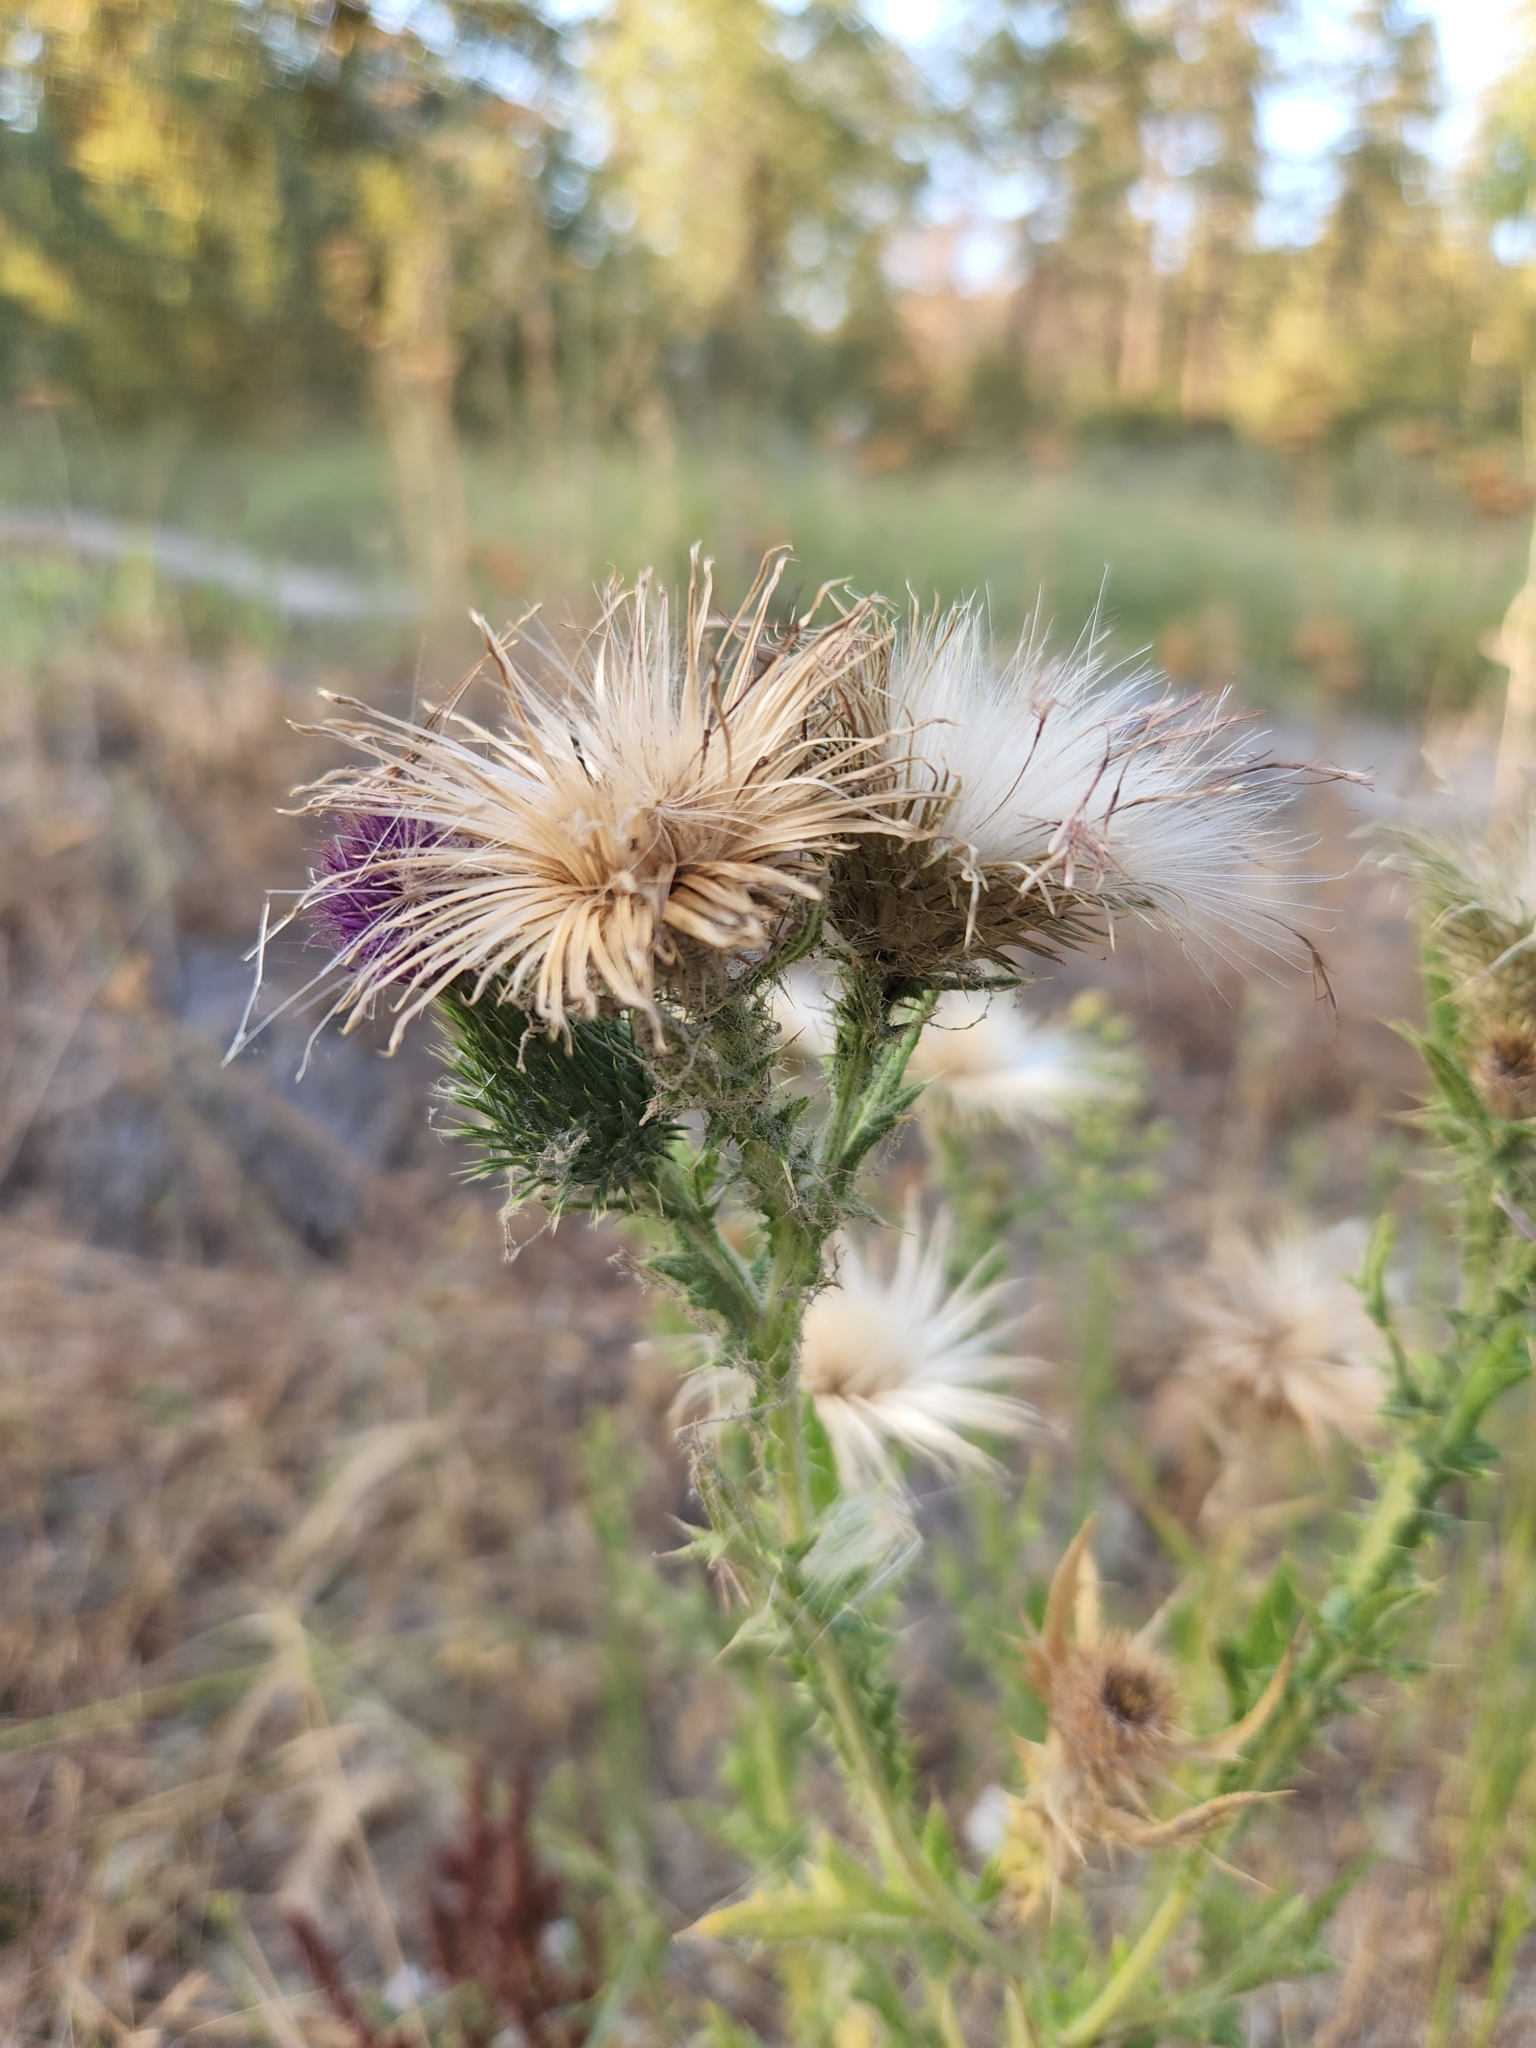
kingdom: Plantae
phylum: Tracheophyta
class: Magnoliopsida
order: Asterales
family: Asteraceae
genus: Cirsium
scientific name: Cirsium vulgare
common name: Bull thistle
